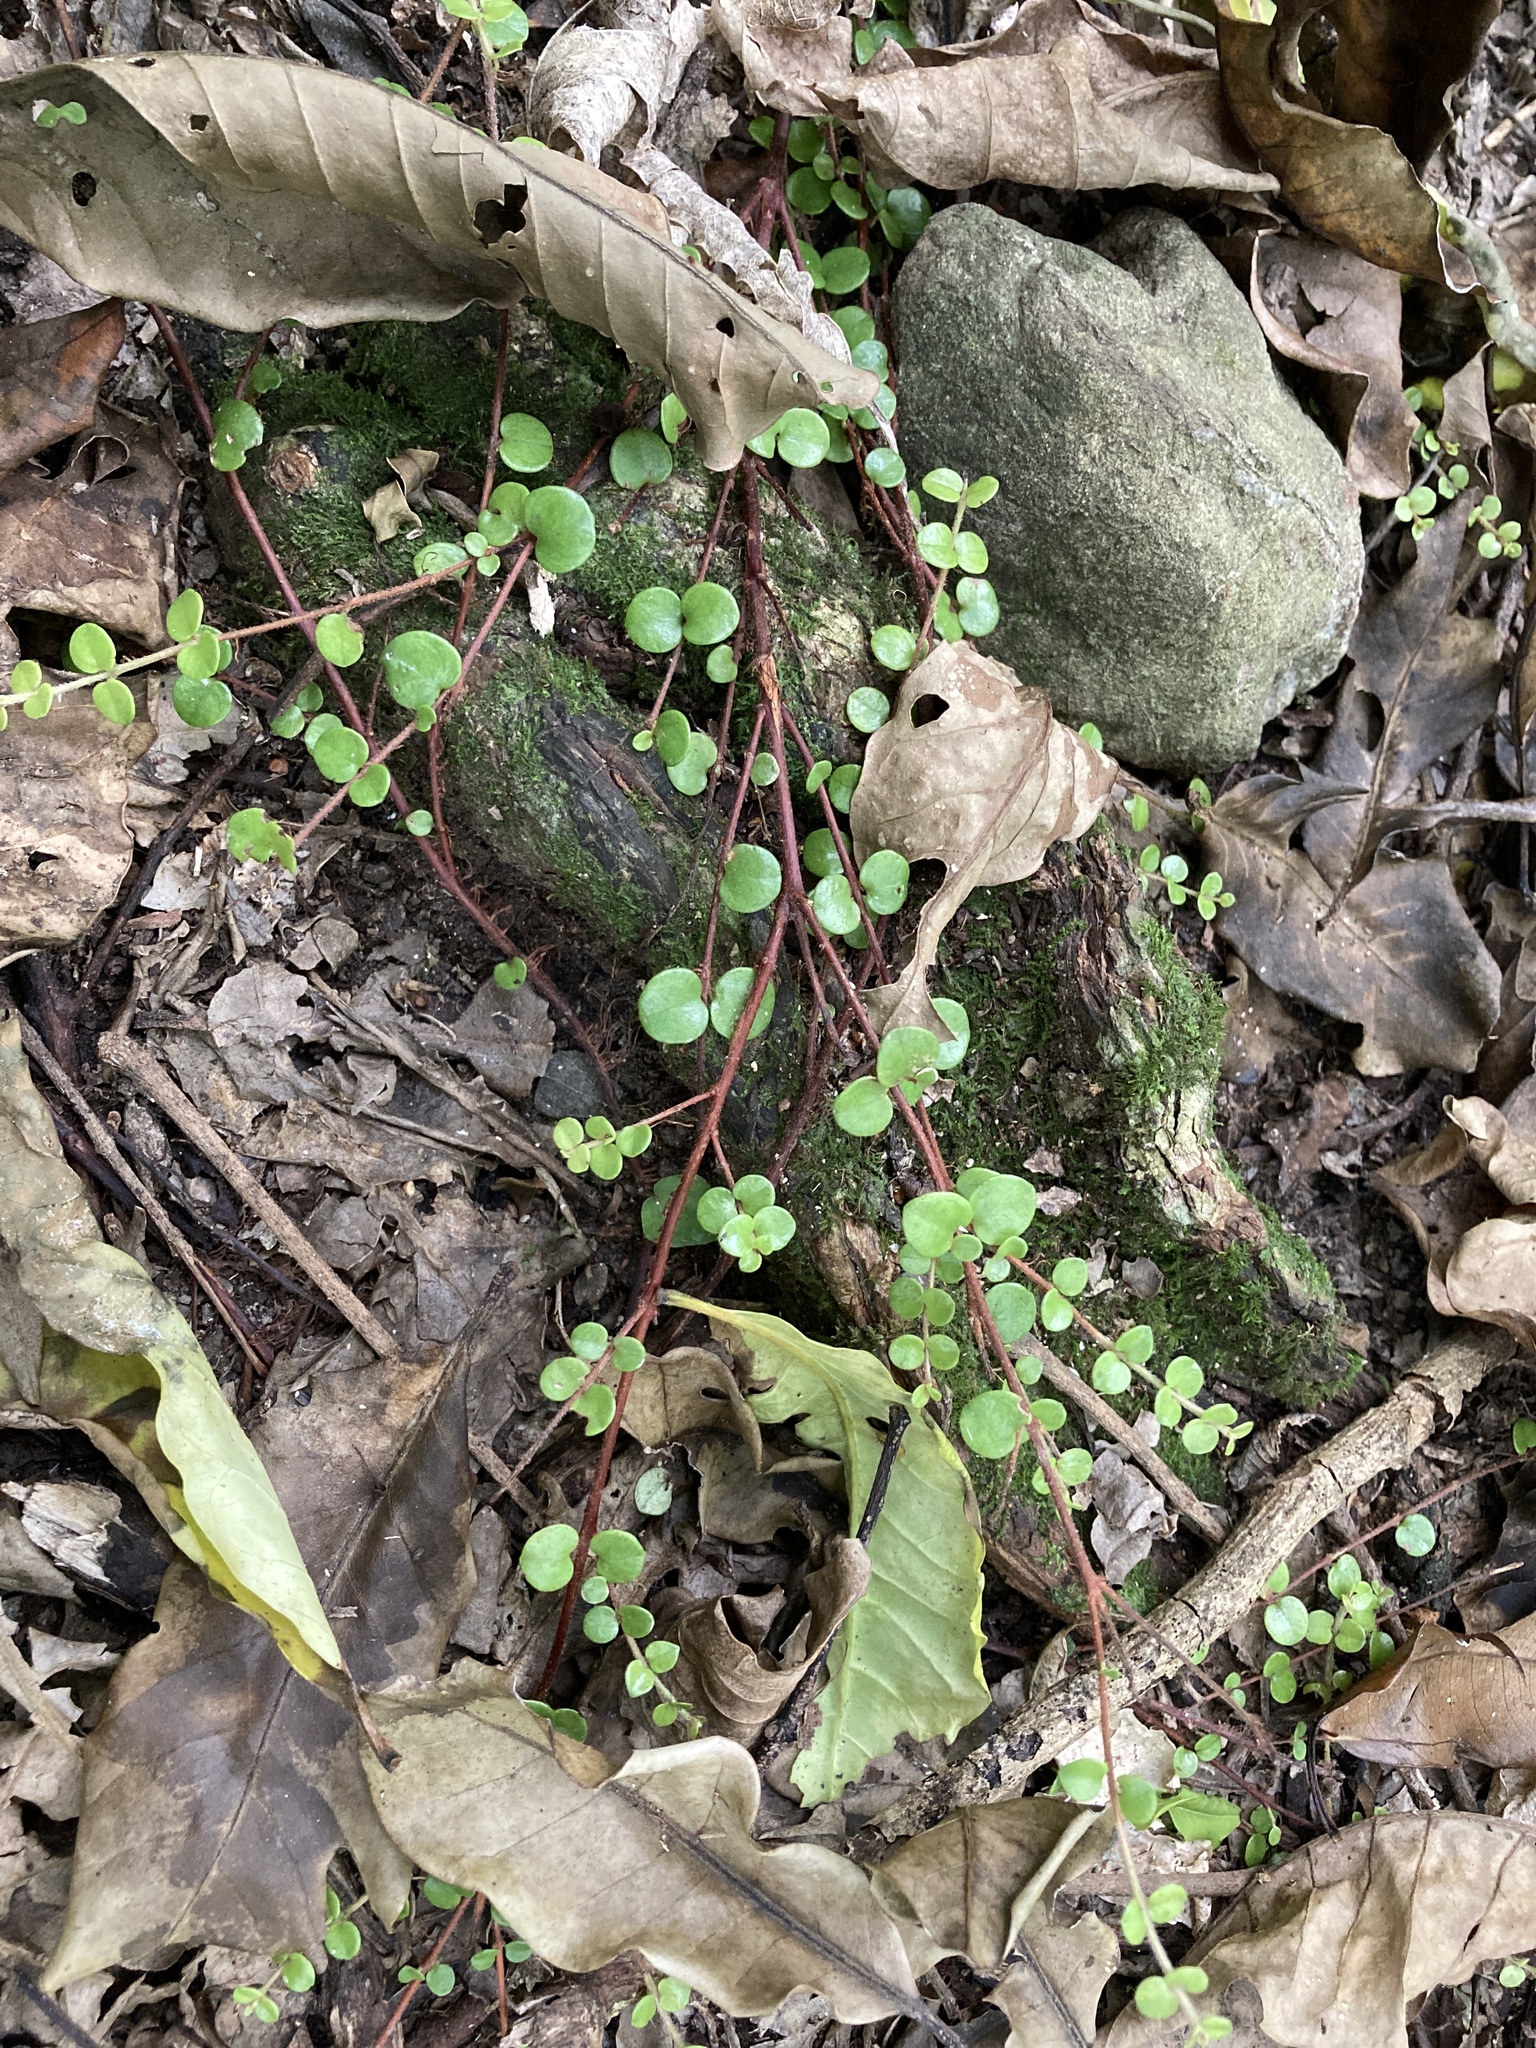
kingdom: Plantae
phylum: Tracheophyta
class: Magnoliopsida
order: Myrtales
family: Myrtaceae
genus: Metrosideros
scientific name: Metrosideros perforata
